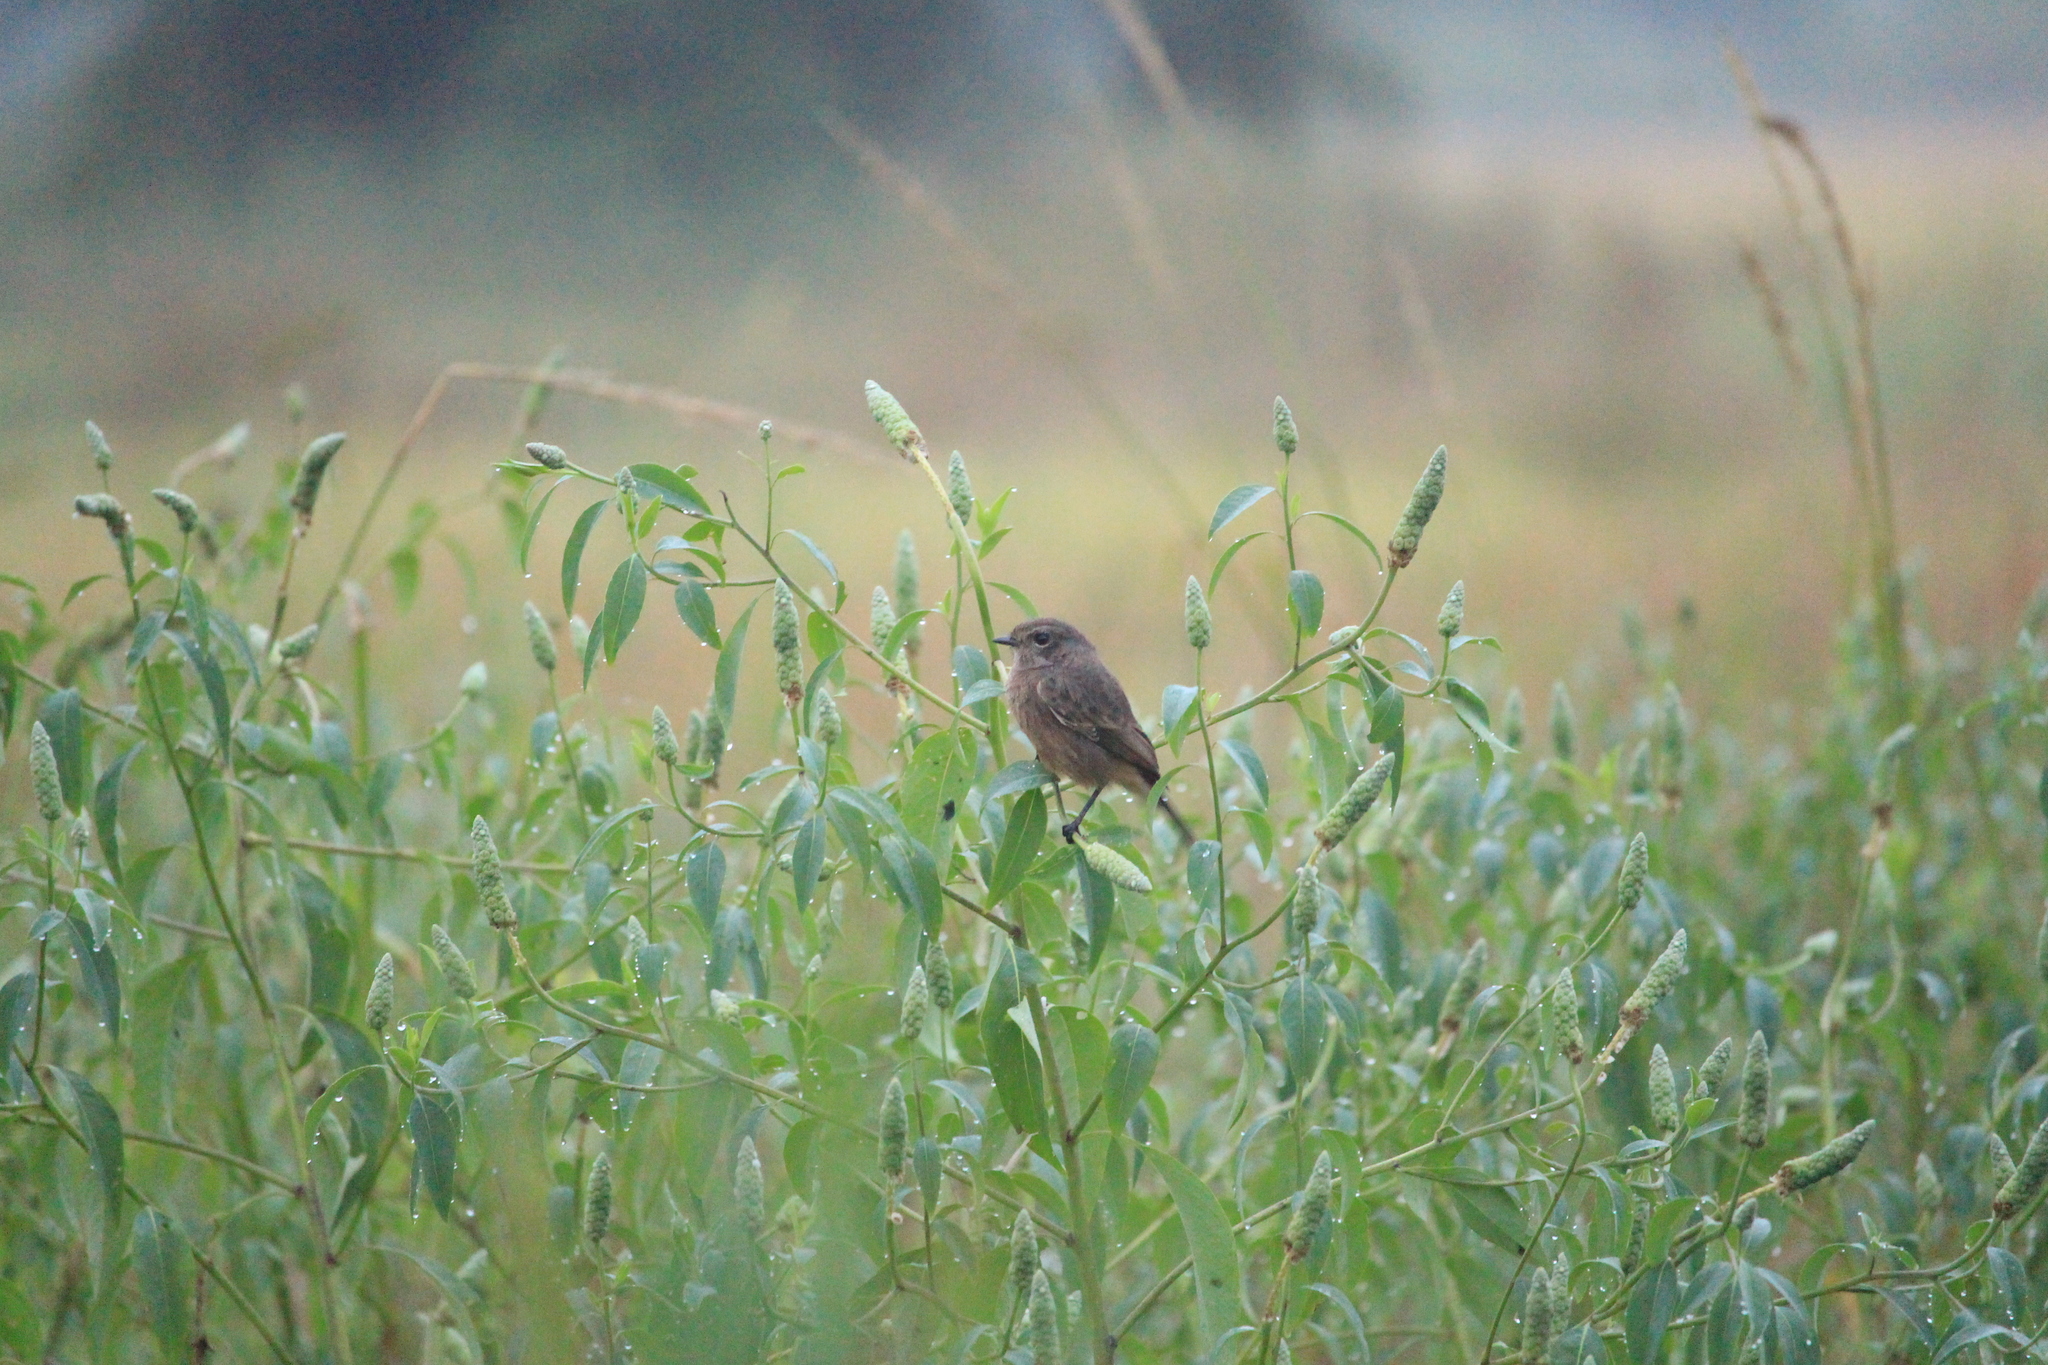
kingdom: Animalia
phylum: Chordata
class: Aves
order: Passeriformes
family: Muscicapidae
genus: Saxicola
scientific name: Saxicola caprata
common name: Pied bush chat
